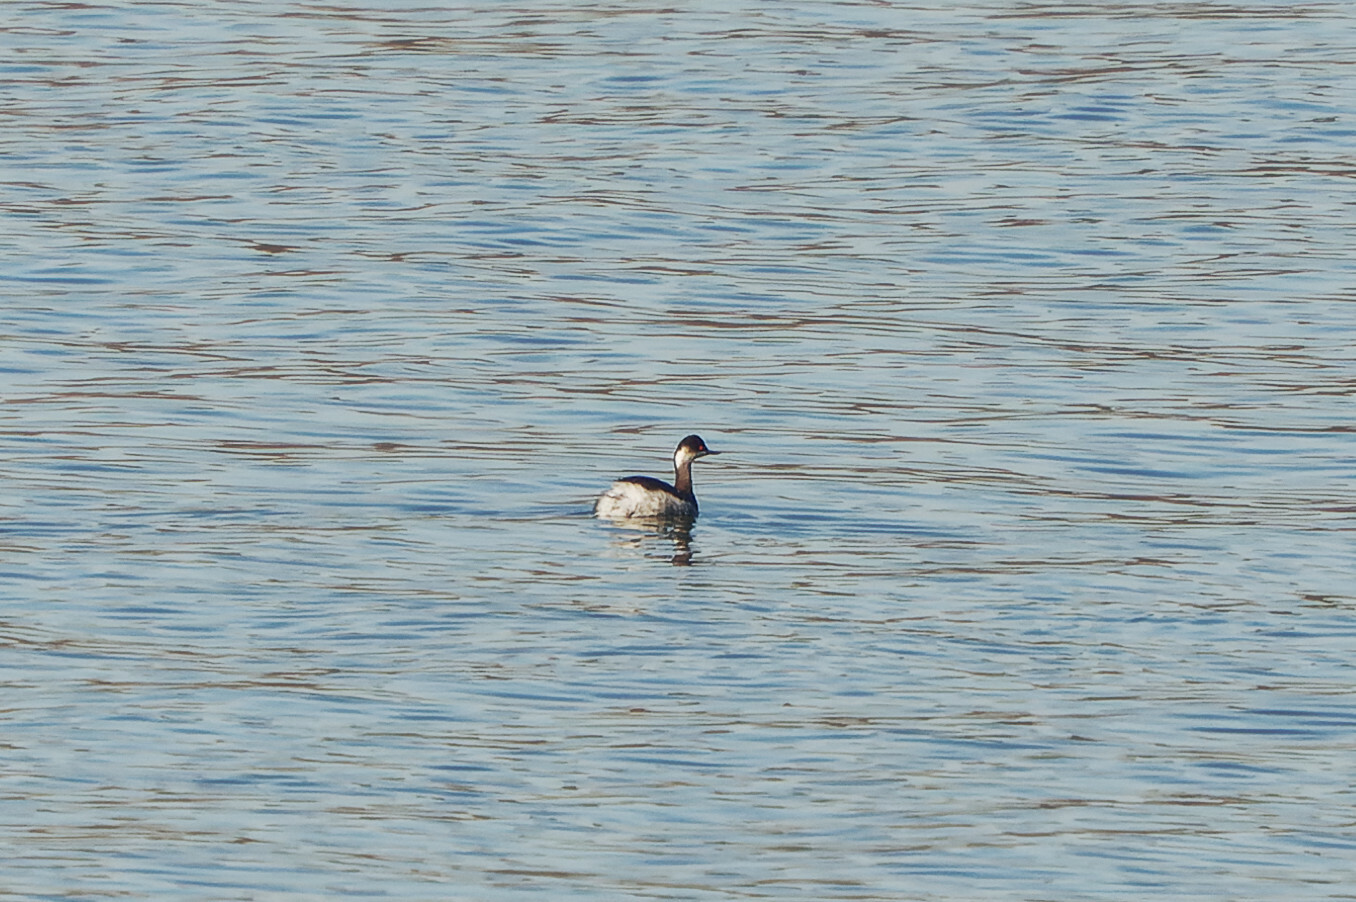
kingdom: Animalia
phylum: Chordata
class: Aves
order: Podicipediformes
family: Podicipedidae
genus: Podiceps
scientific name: Podiceps nigricollis
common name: Black-necked grebe
